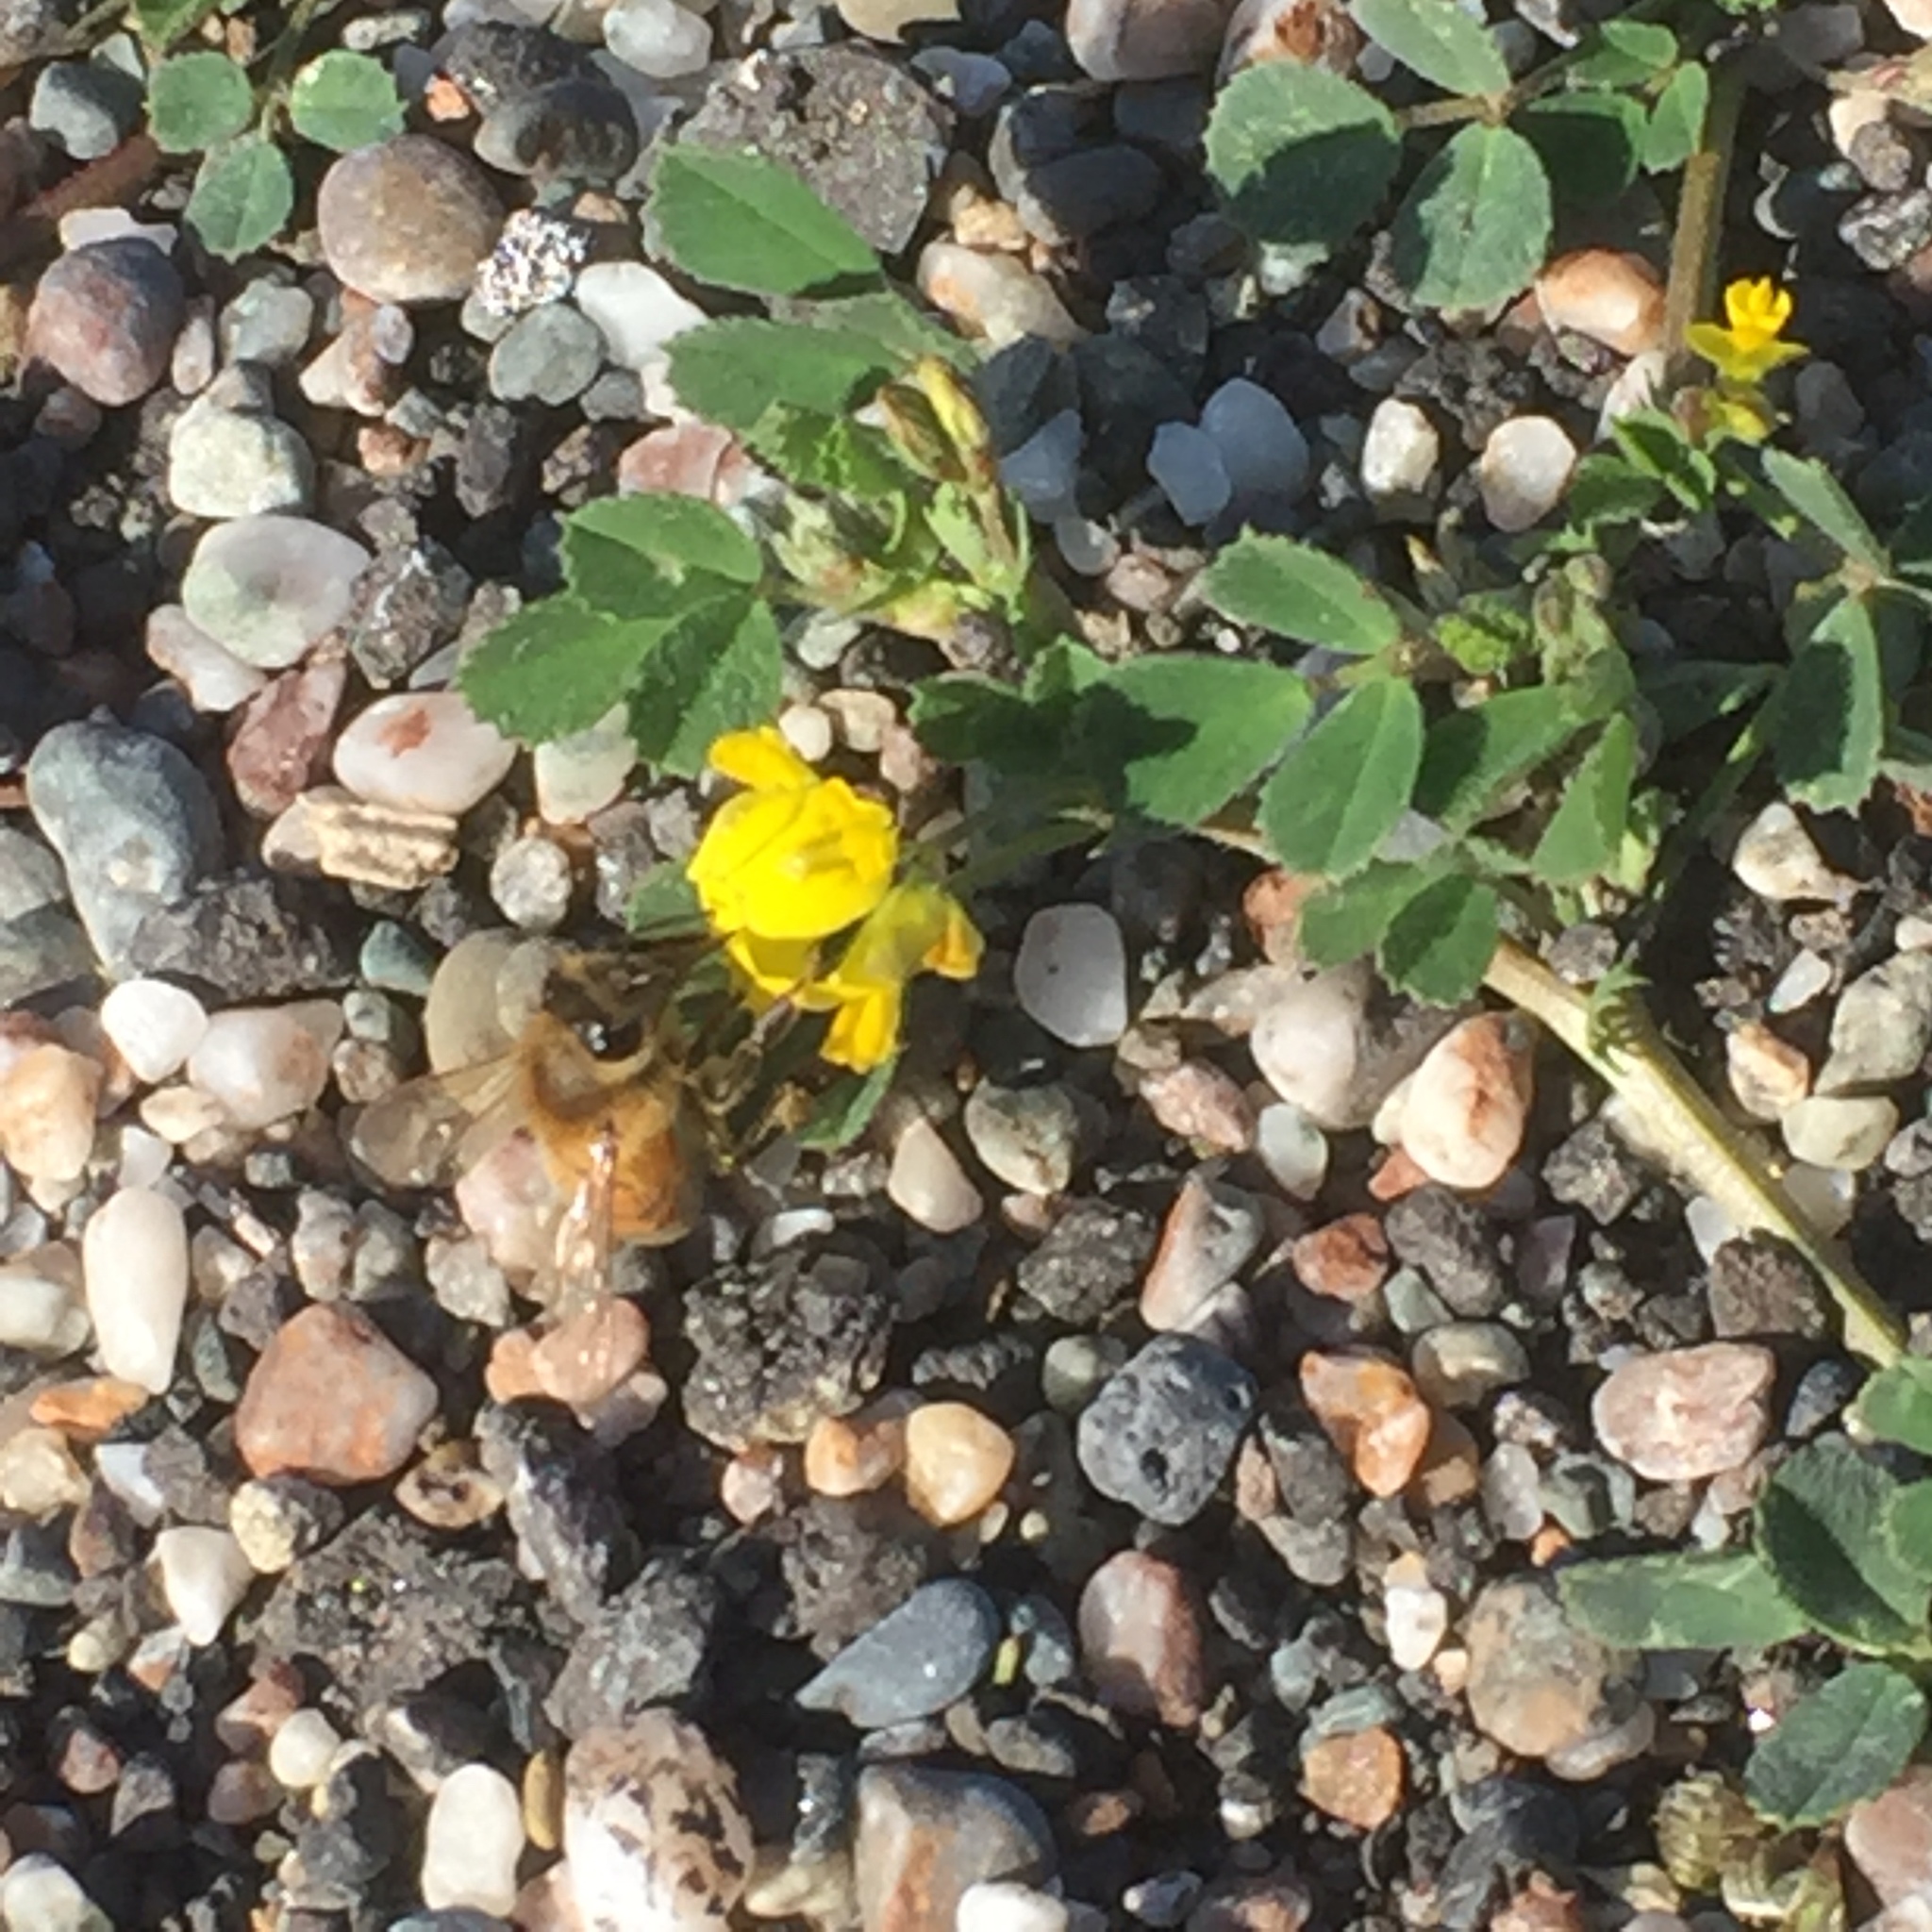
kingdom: Animalia
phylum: Arthropoda
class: Insecta
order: Hymenoptera
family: Apidae
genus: Apis
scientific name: Apis mellifera
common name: Honey bee
